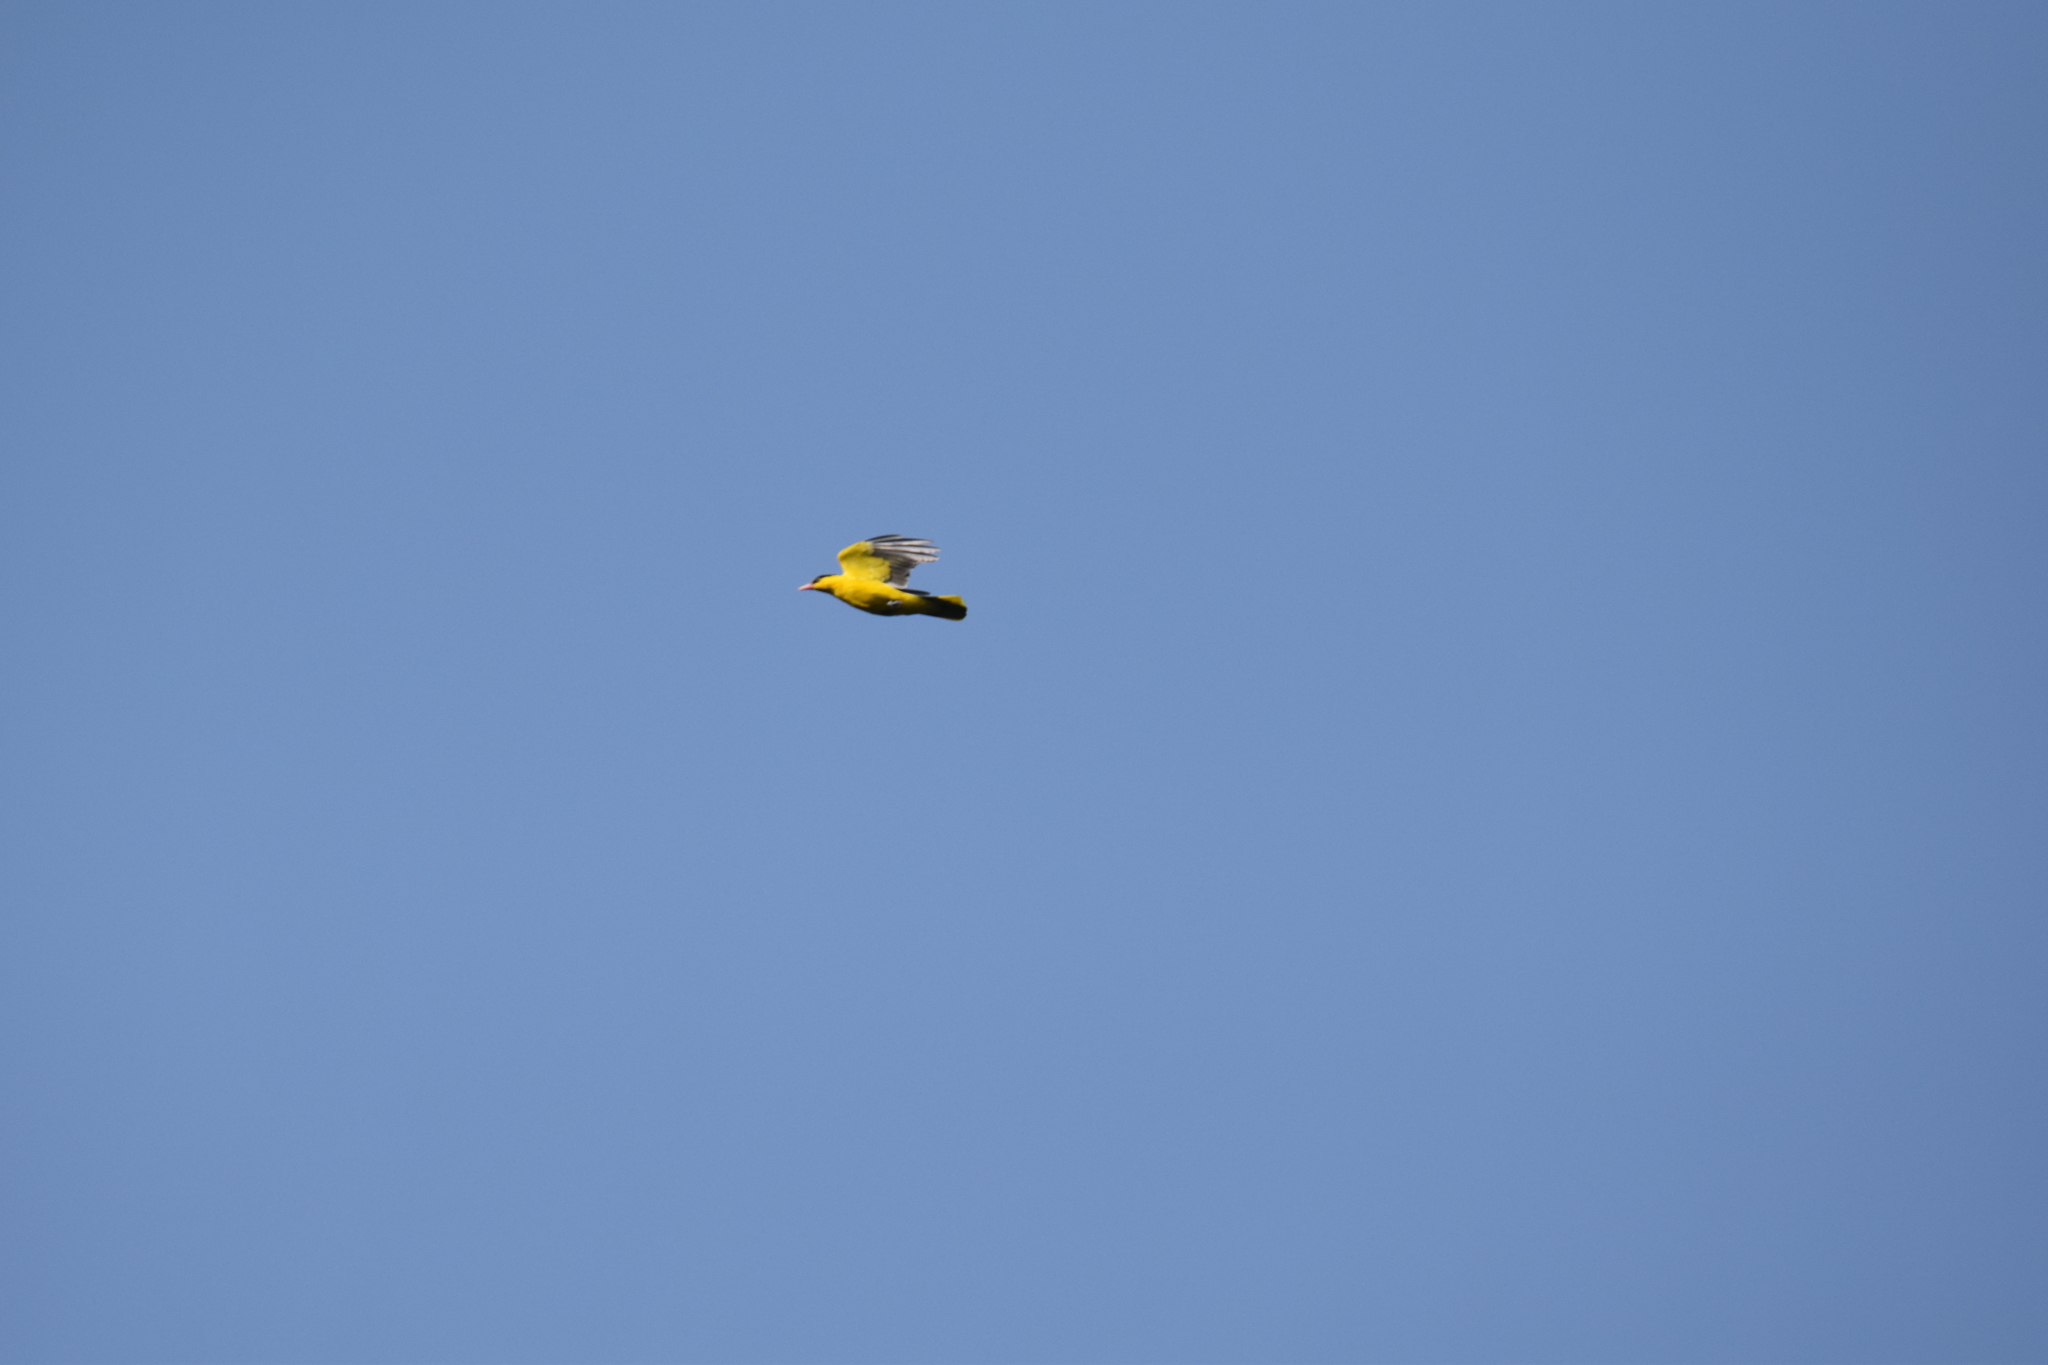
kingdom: Animalia
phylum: Chordata
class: Aves
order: Passeriformes
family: Oriolidae
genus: Oriolus
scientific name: Oriolus chinensis
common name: Black-naped oriole
